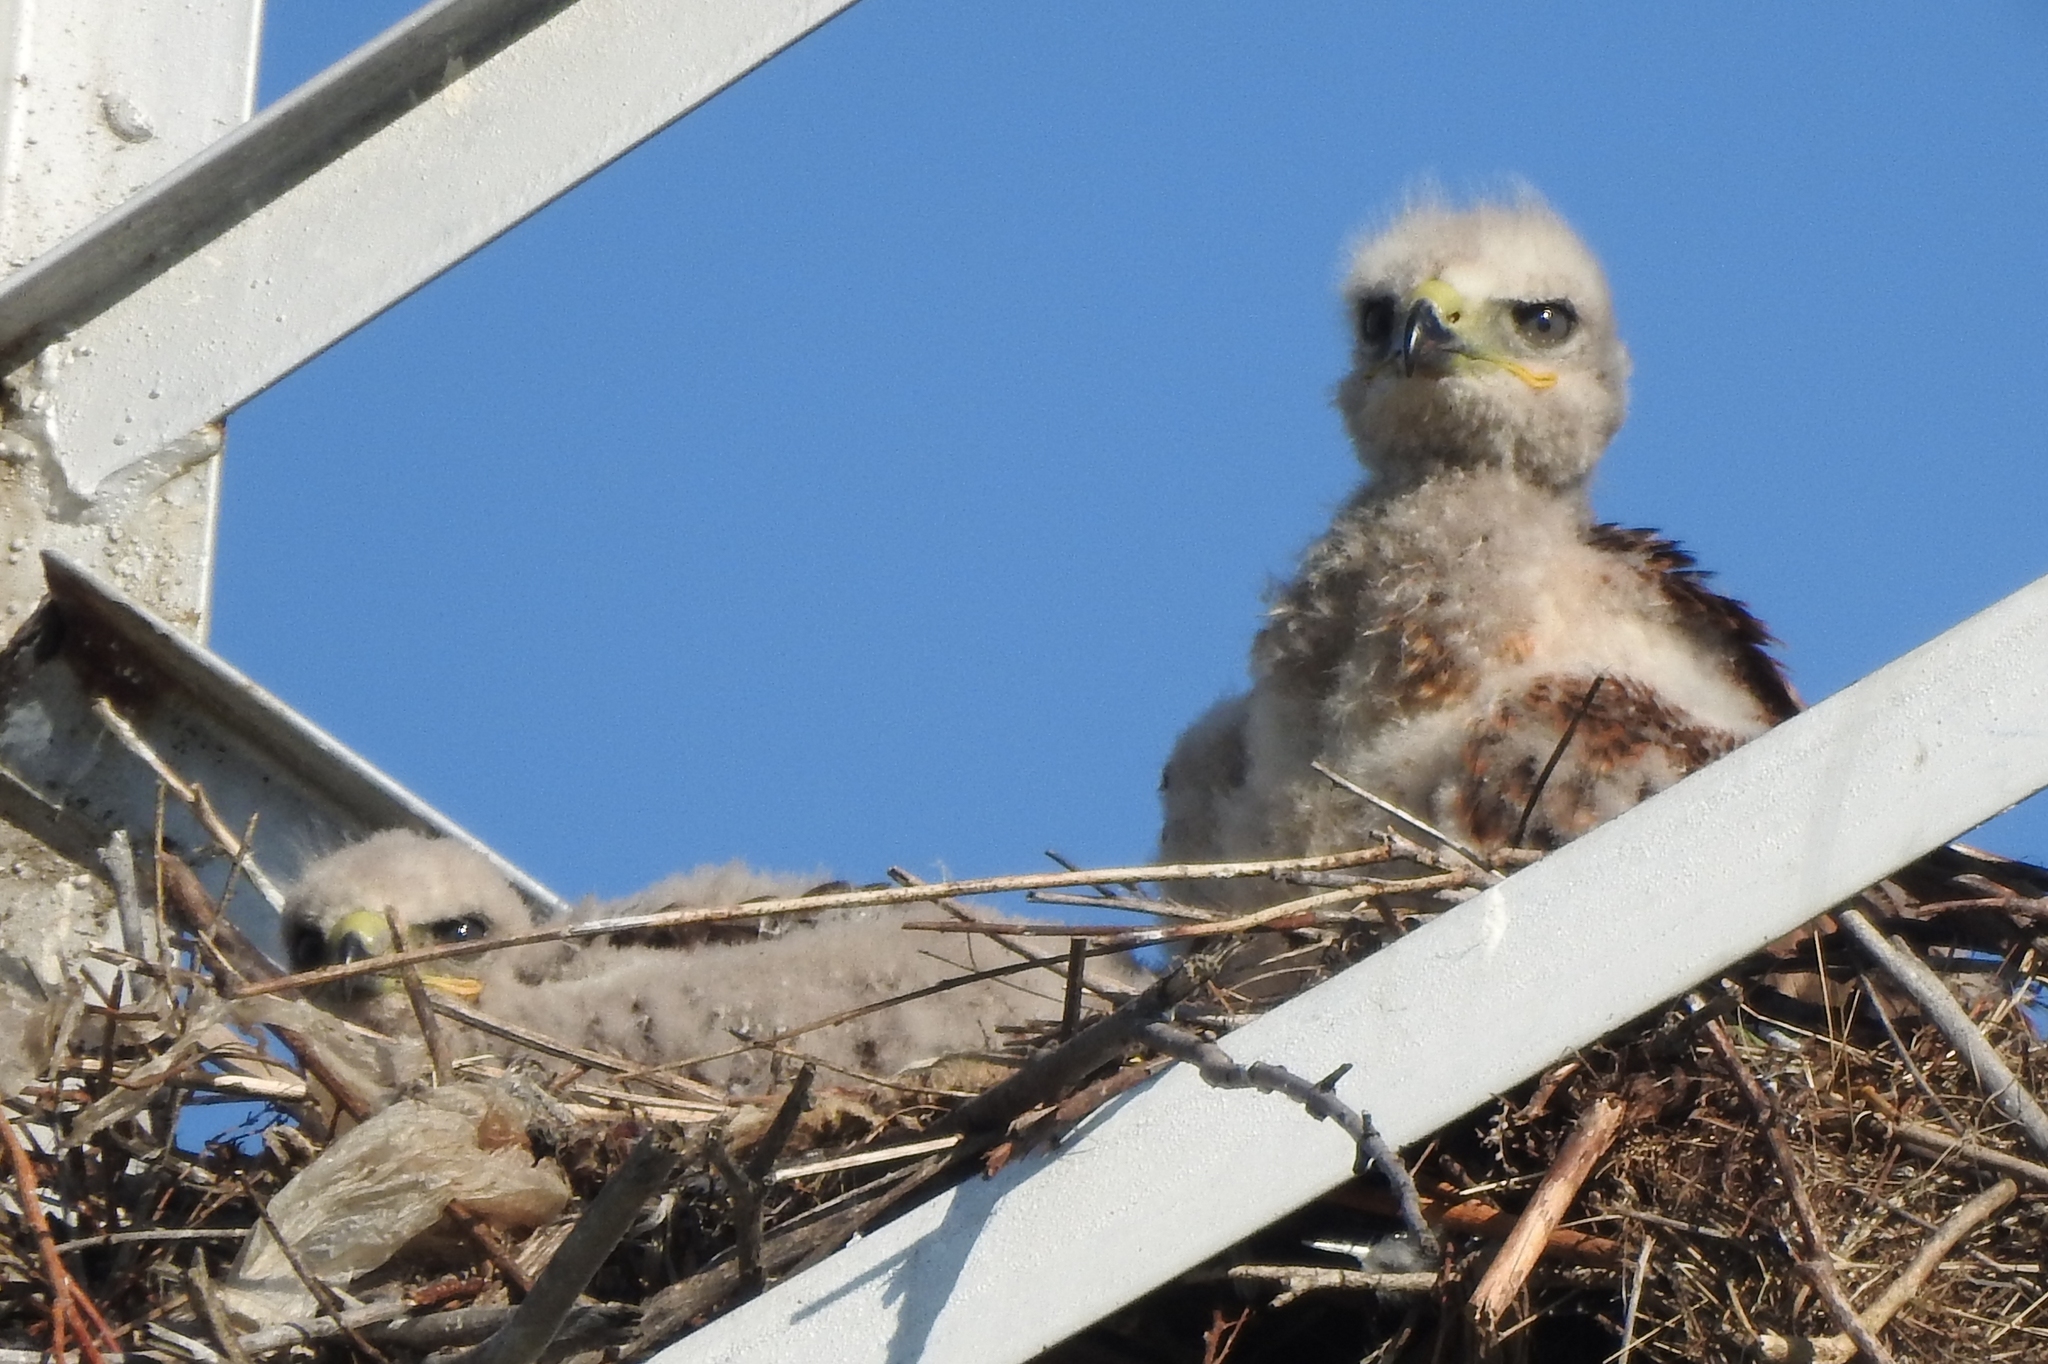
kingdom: Animalia
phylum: Chordata
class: Aves
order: Accipitriformes
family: Accipitridae
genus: Buteo
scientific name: Buteo hemilasius
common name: Upland buzzard
